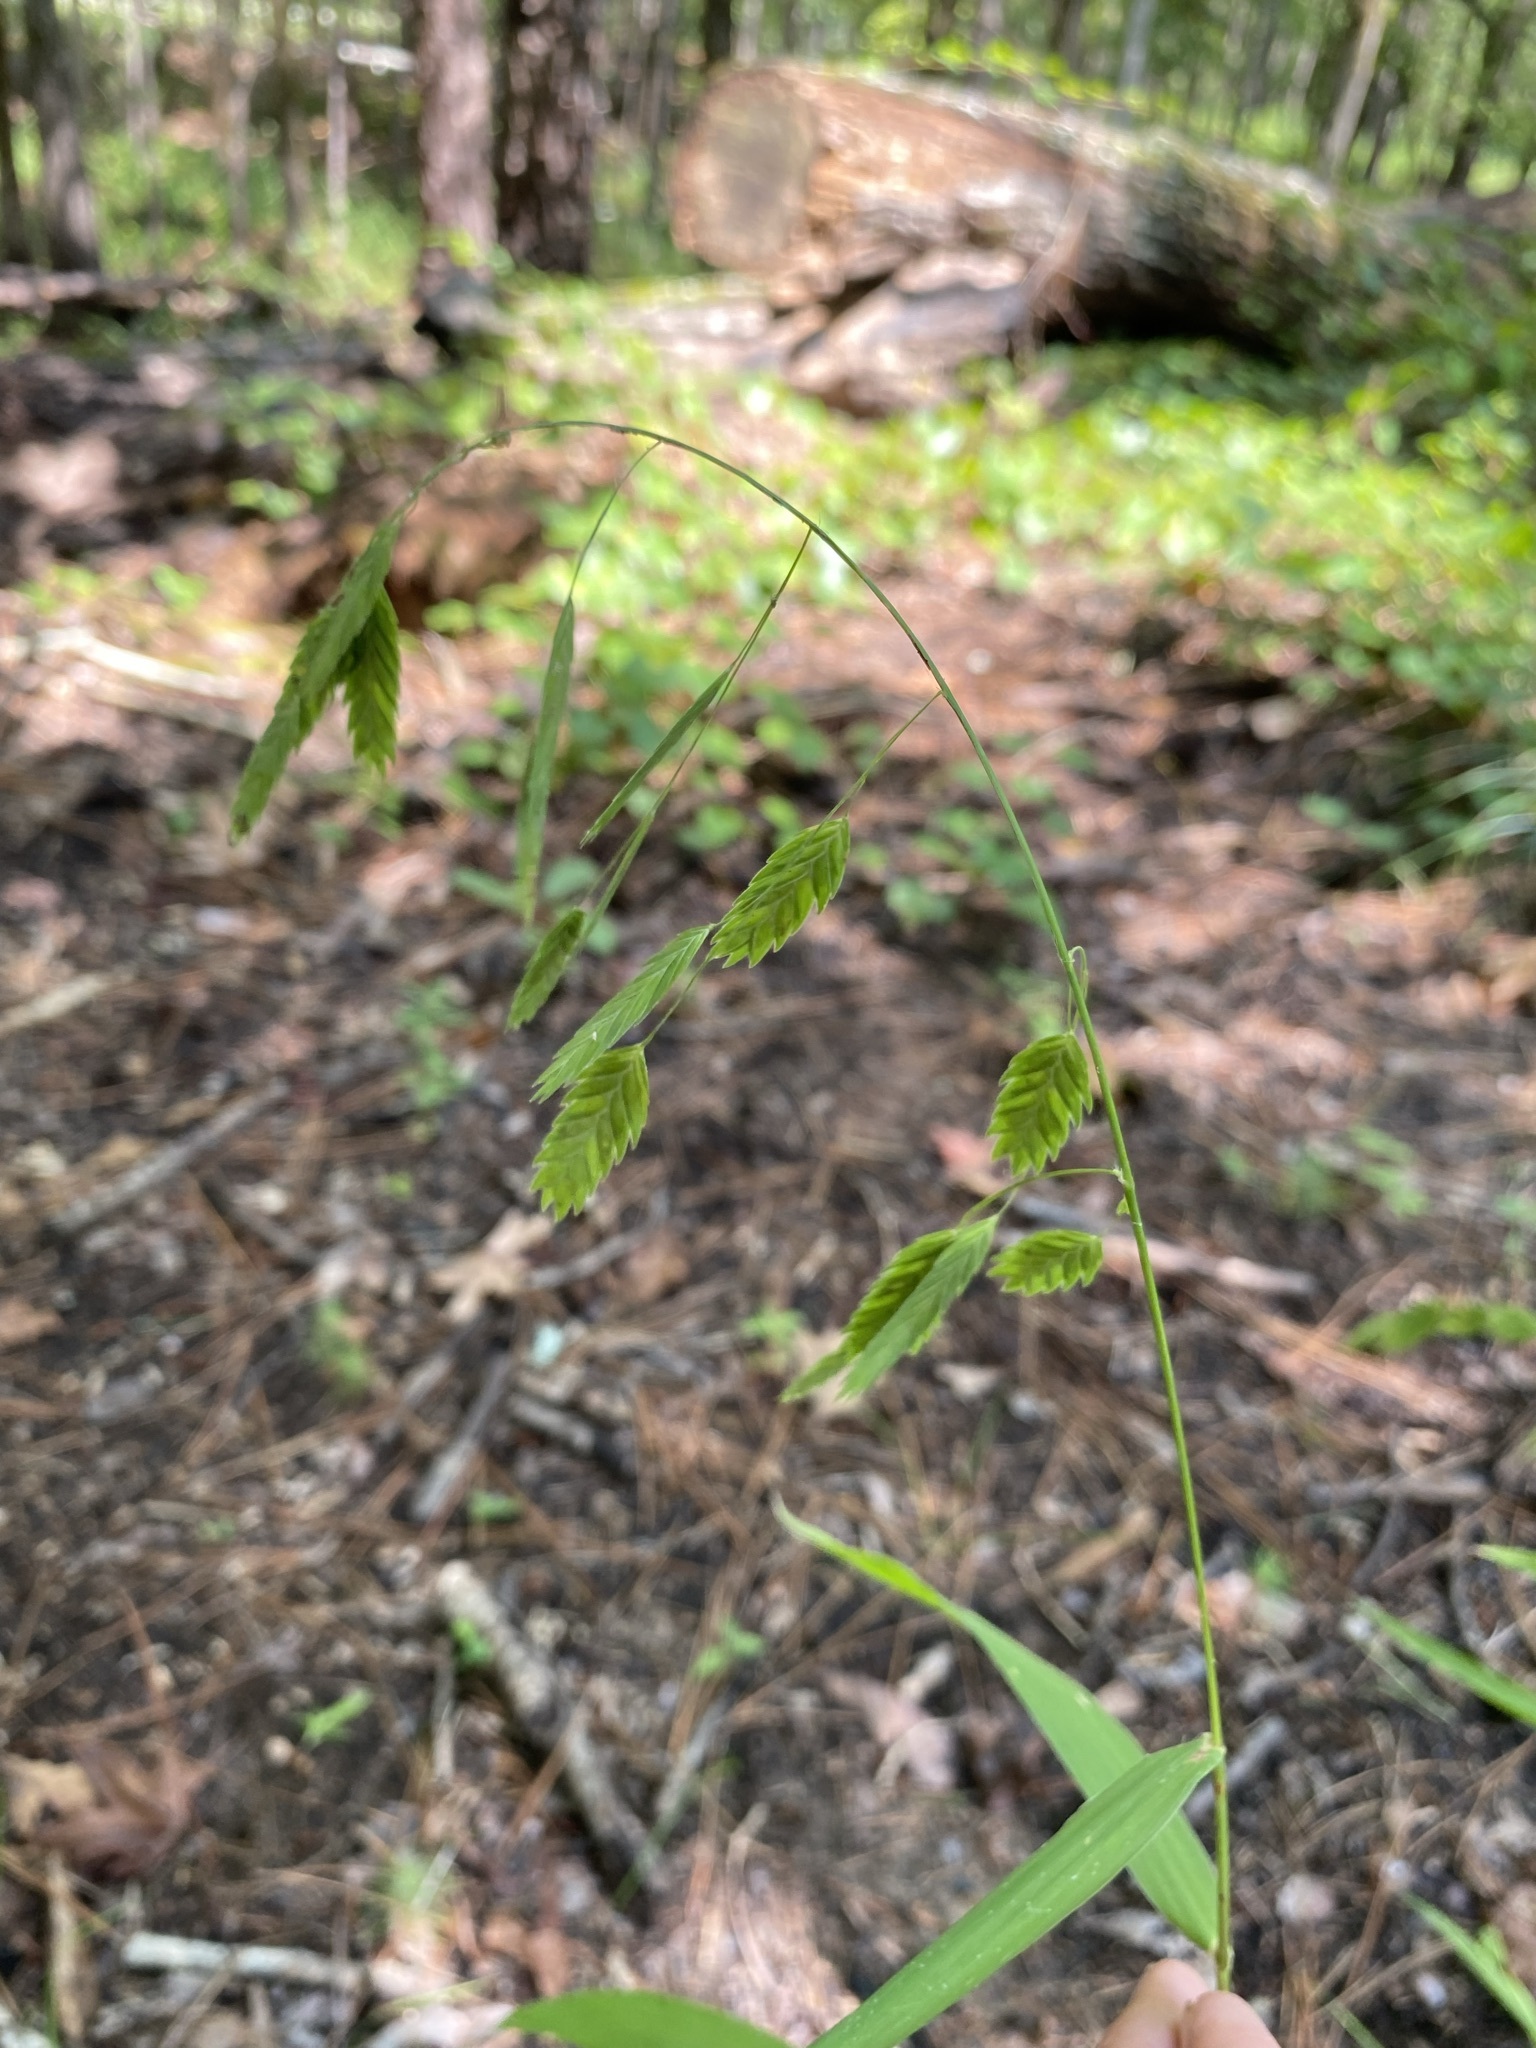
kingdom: Plantae
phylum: Tracheophyta
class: Liliopsida
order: Poales
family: Poaceae
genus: Chasmanthium
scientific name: Chasmanthium latifolium
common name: Broad-leaved chasmanthium
